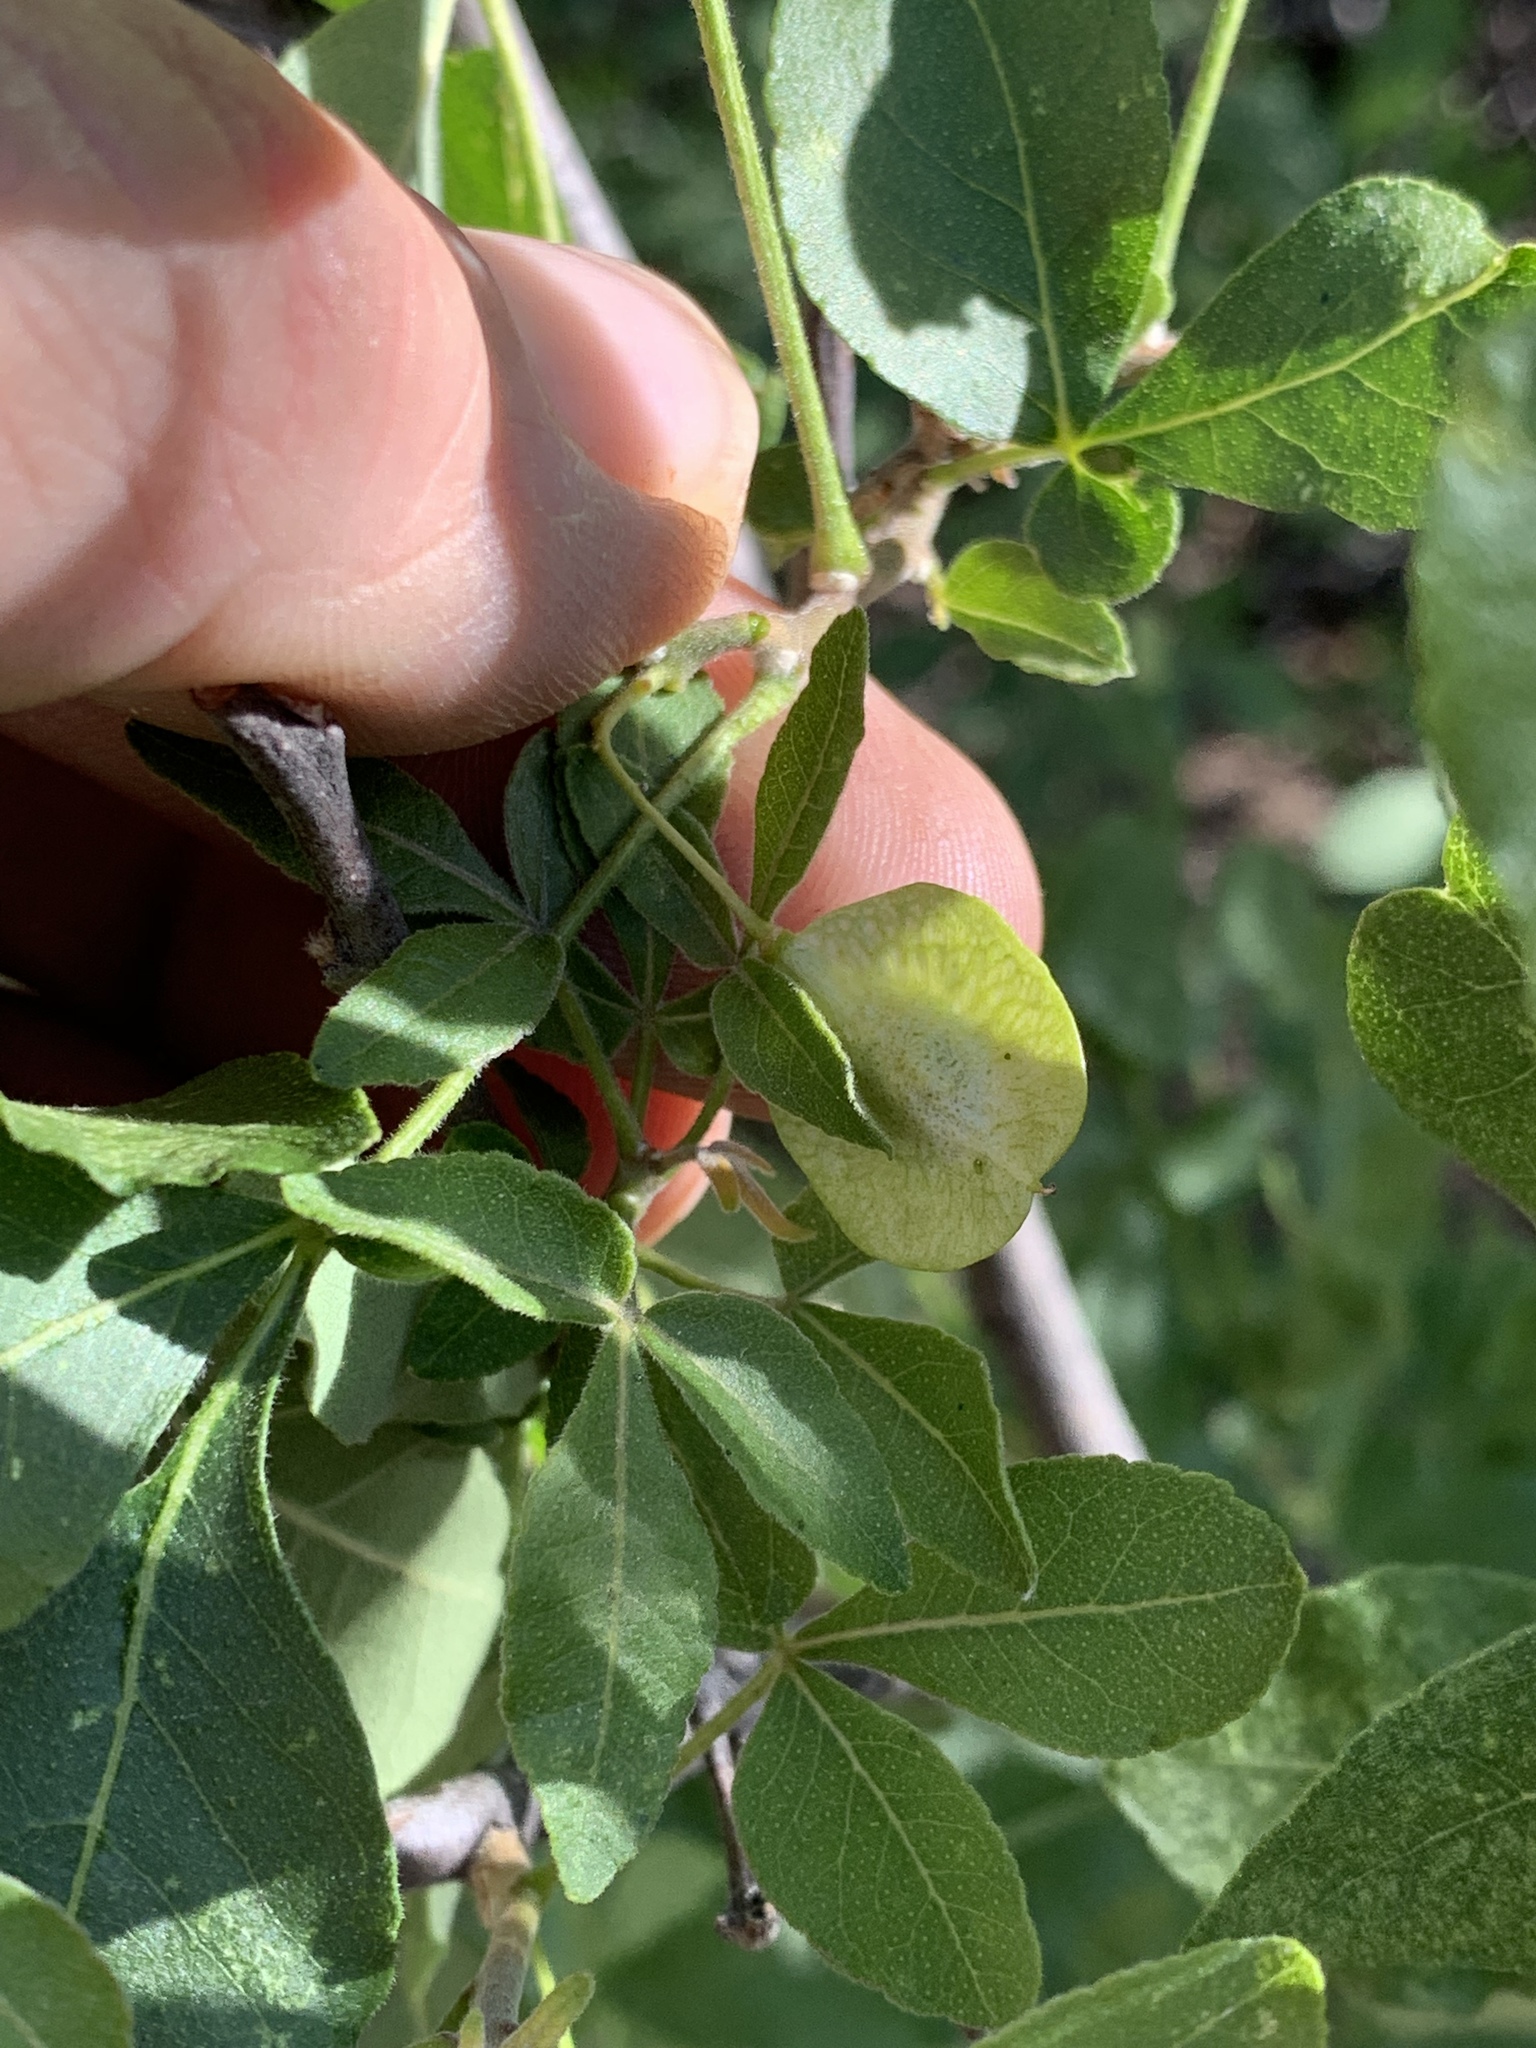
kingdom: Plantae
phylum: Tracheophyta
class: Magnoliopsida
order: Sapindales
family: Rutaceae
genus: Ptelea
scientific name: Ptelea trifoliata
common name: Common hop-tree
